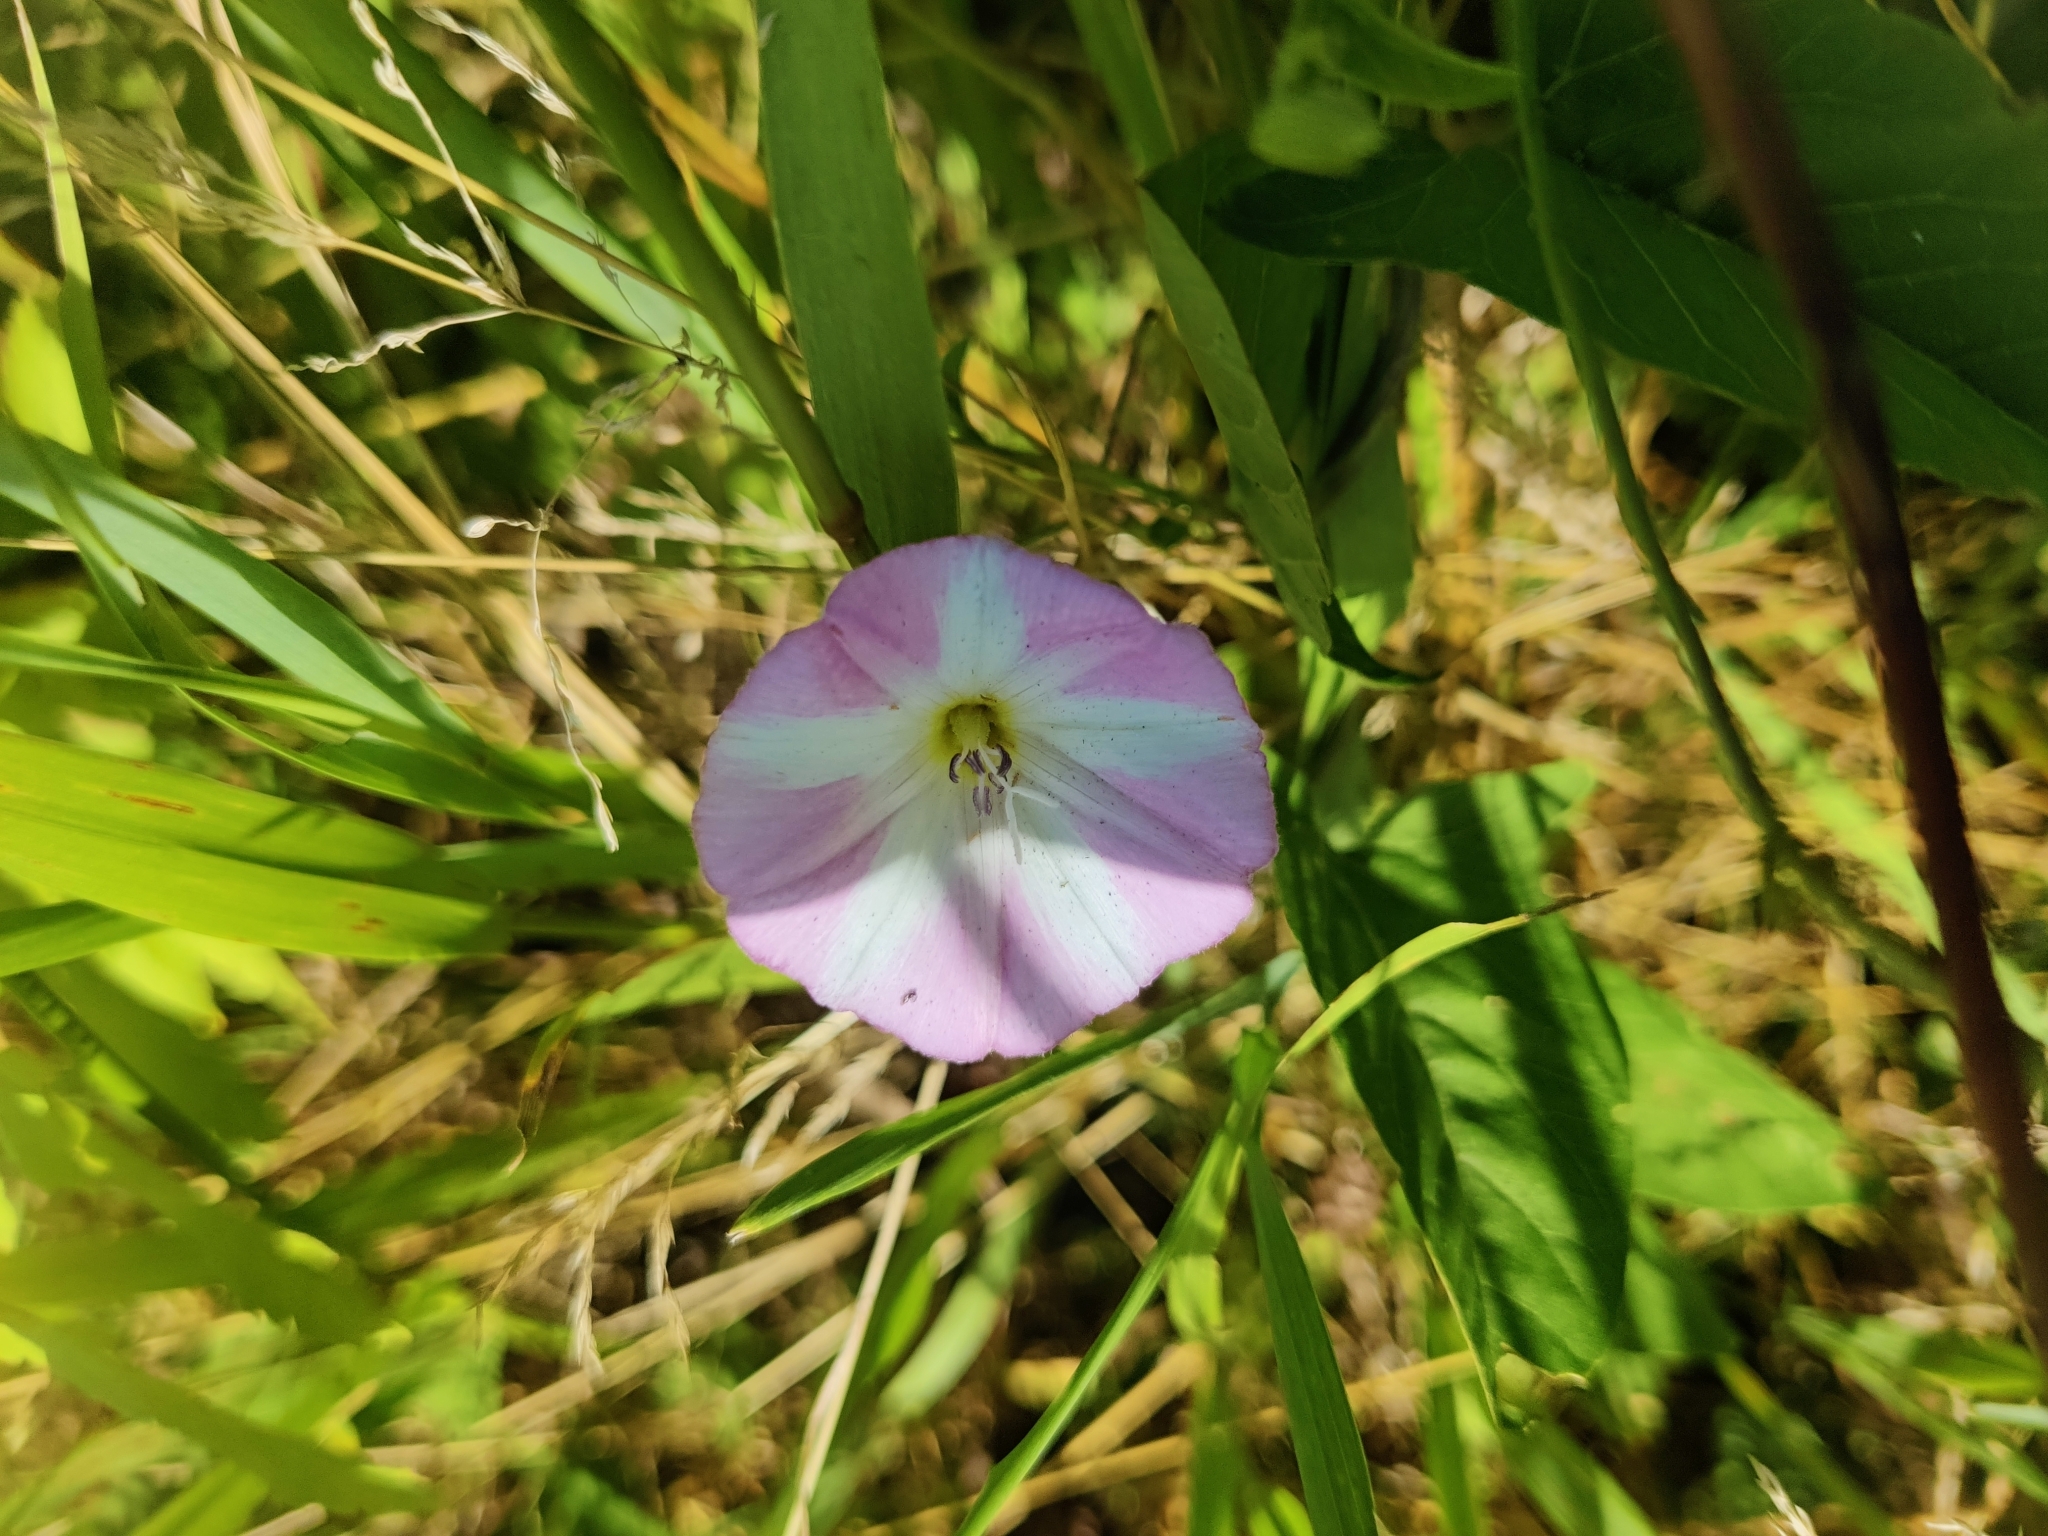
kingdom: Plantae
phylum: Tracheophyta
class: Magnoliopsida
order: Solanales
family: Convolvulaceae
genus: Convolvulus
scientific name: Convolvulus arvensis
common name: Field bindweed
